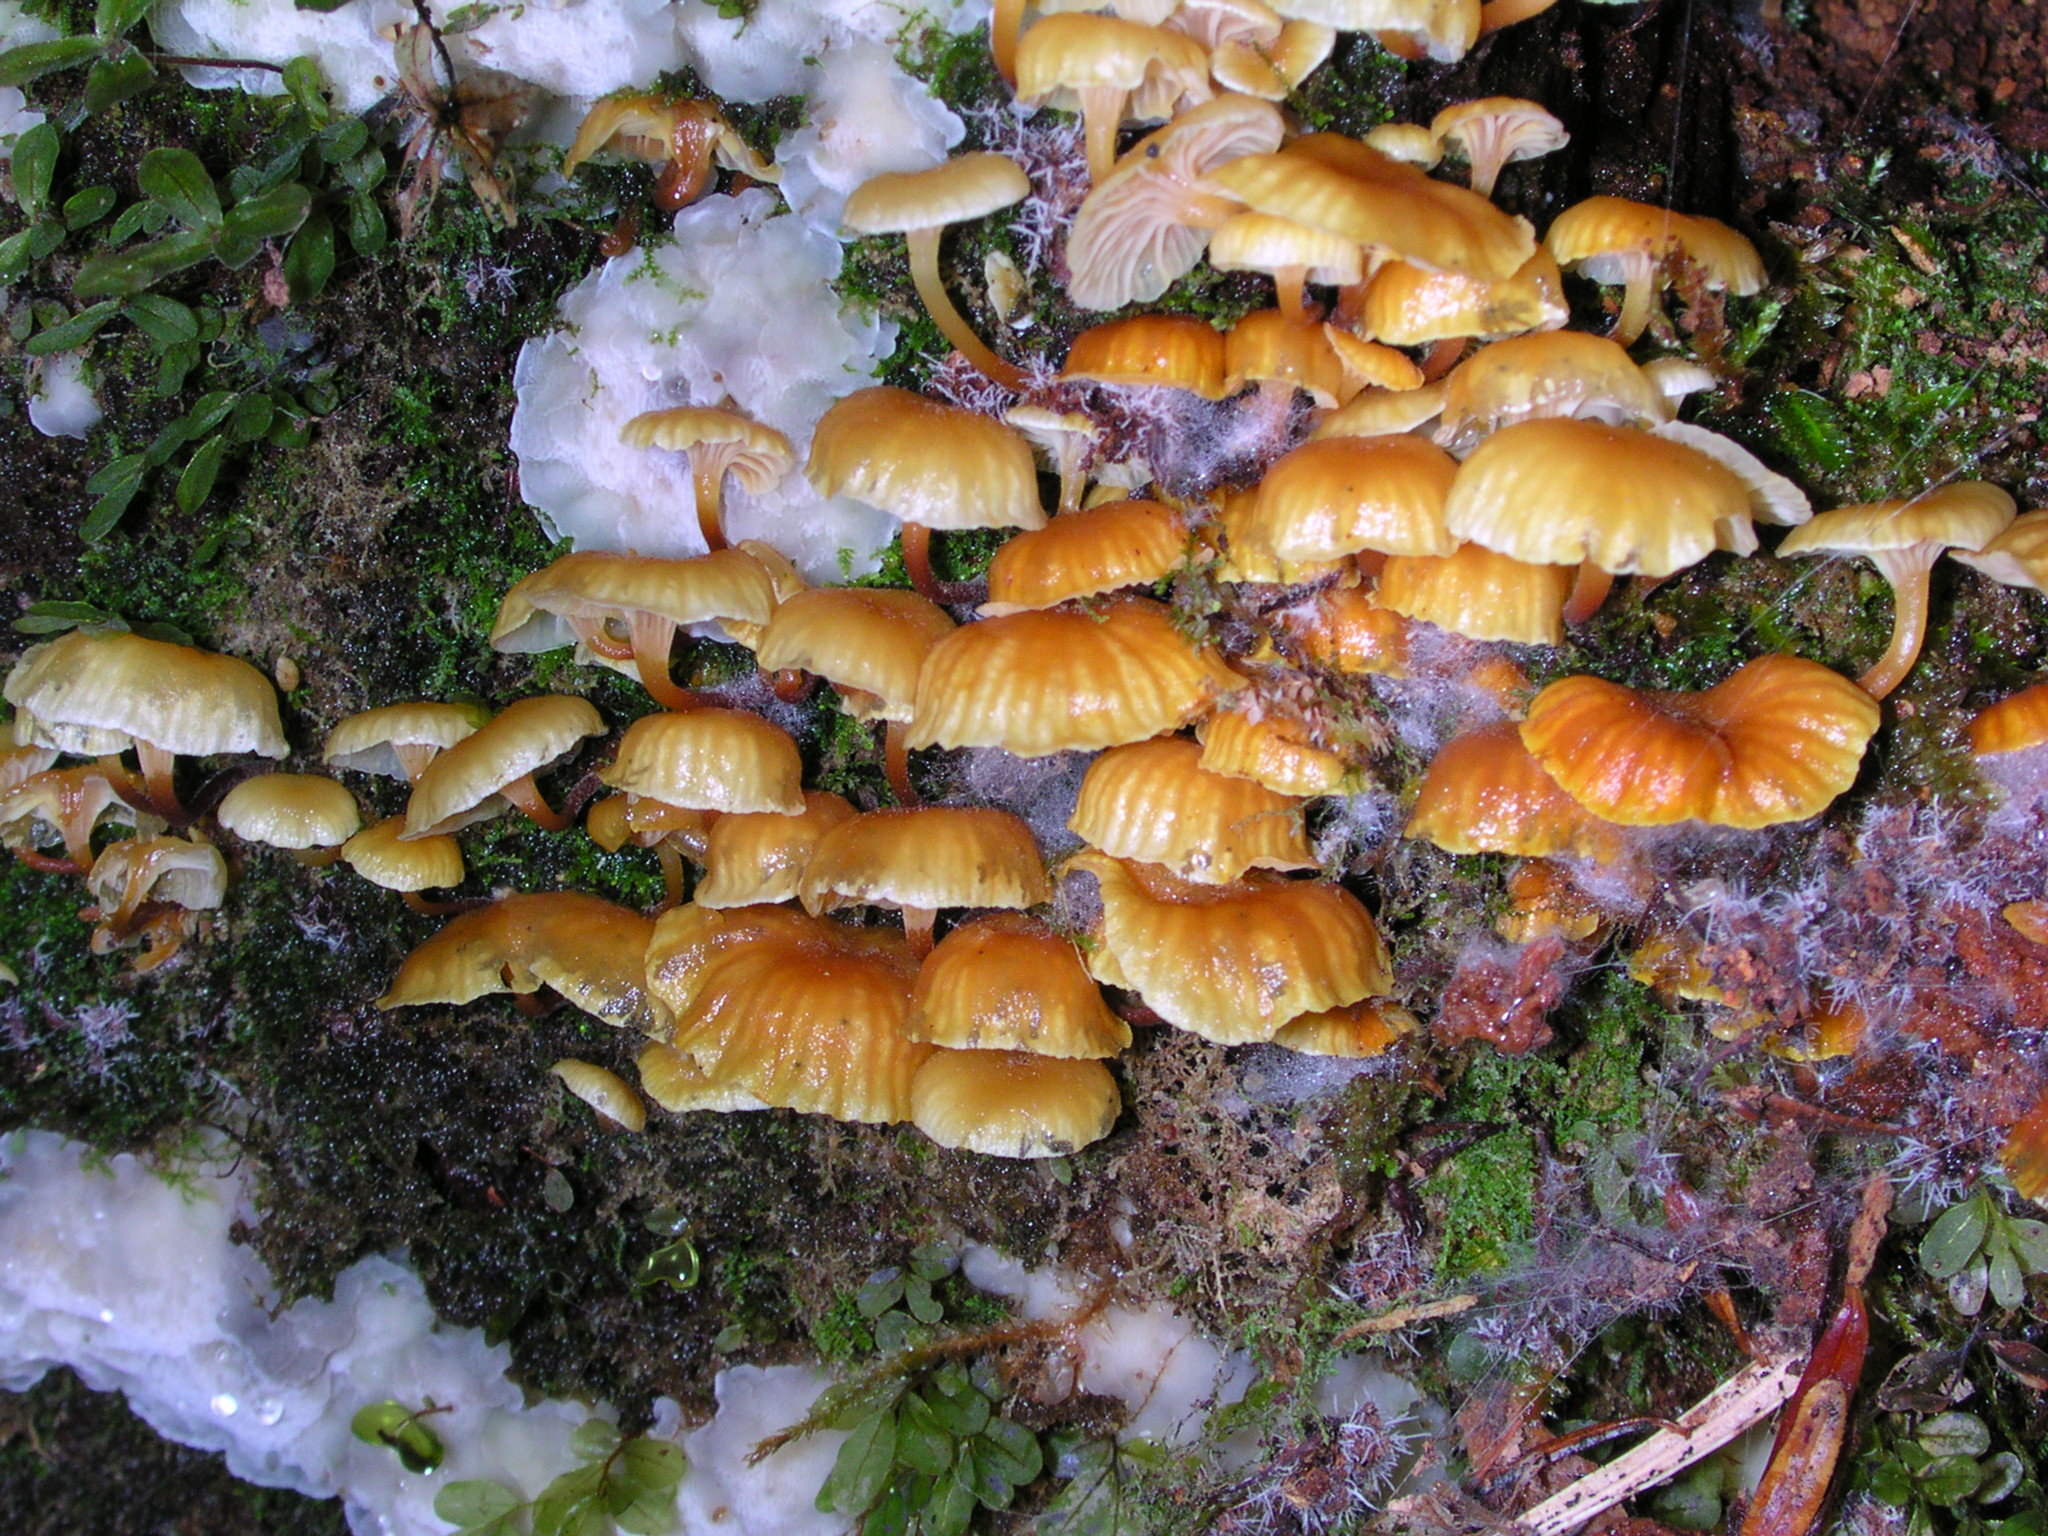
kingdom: Fungi
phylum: Basidiomycota
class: Agaricomycetes
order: Agaricales
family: Mycenaceae
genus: Xeromphalina
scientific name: Xeromphalina campanella
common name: Pinewood gingertail
